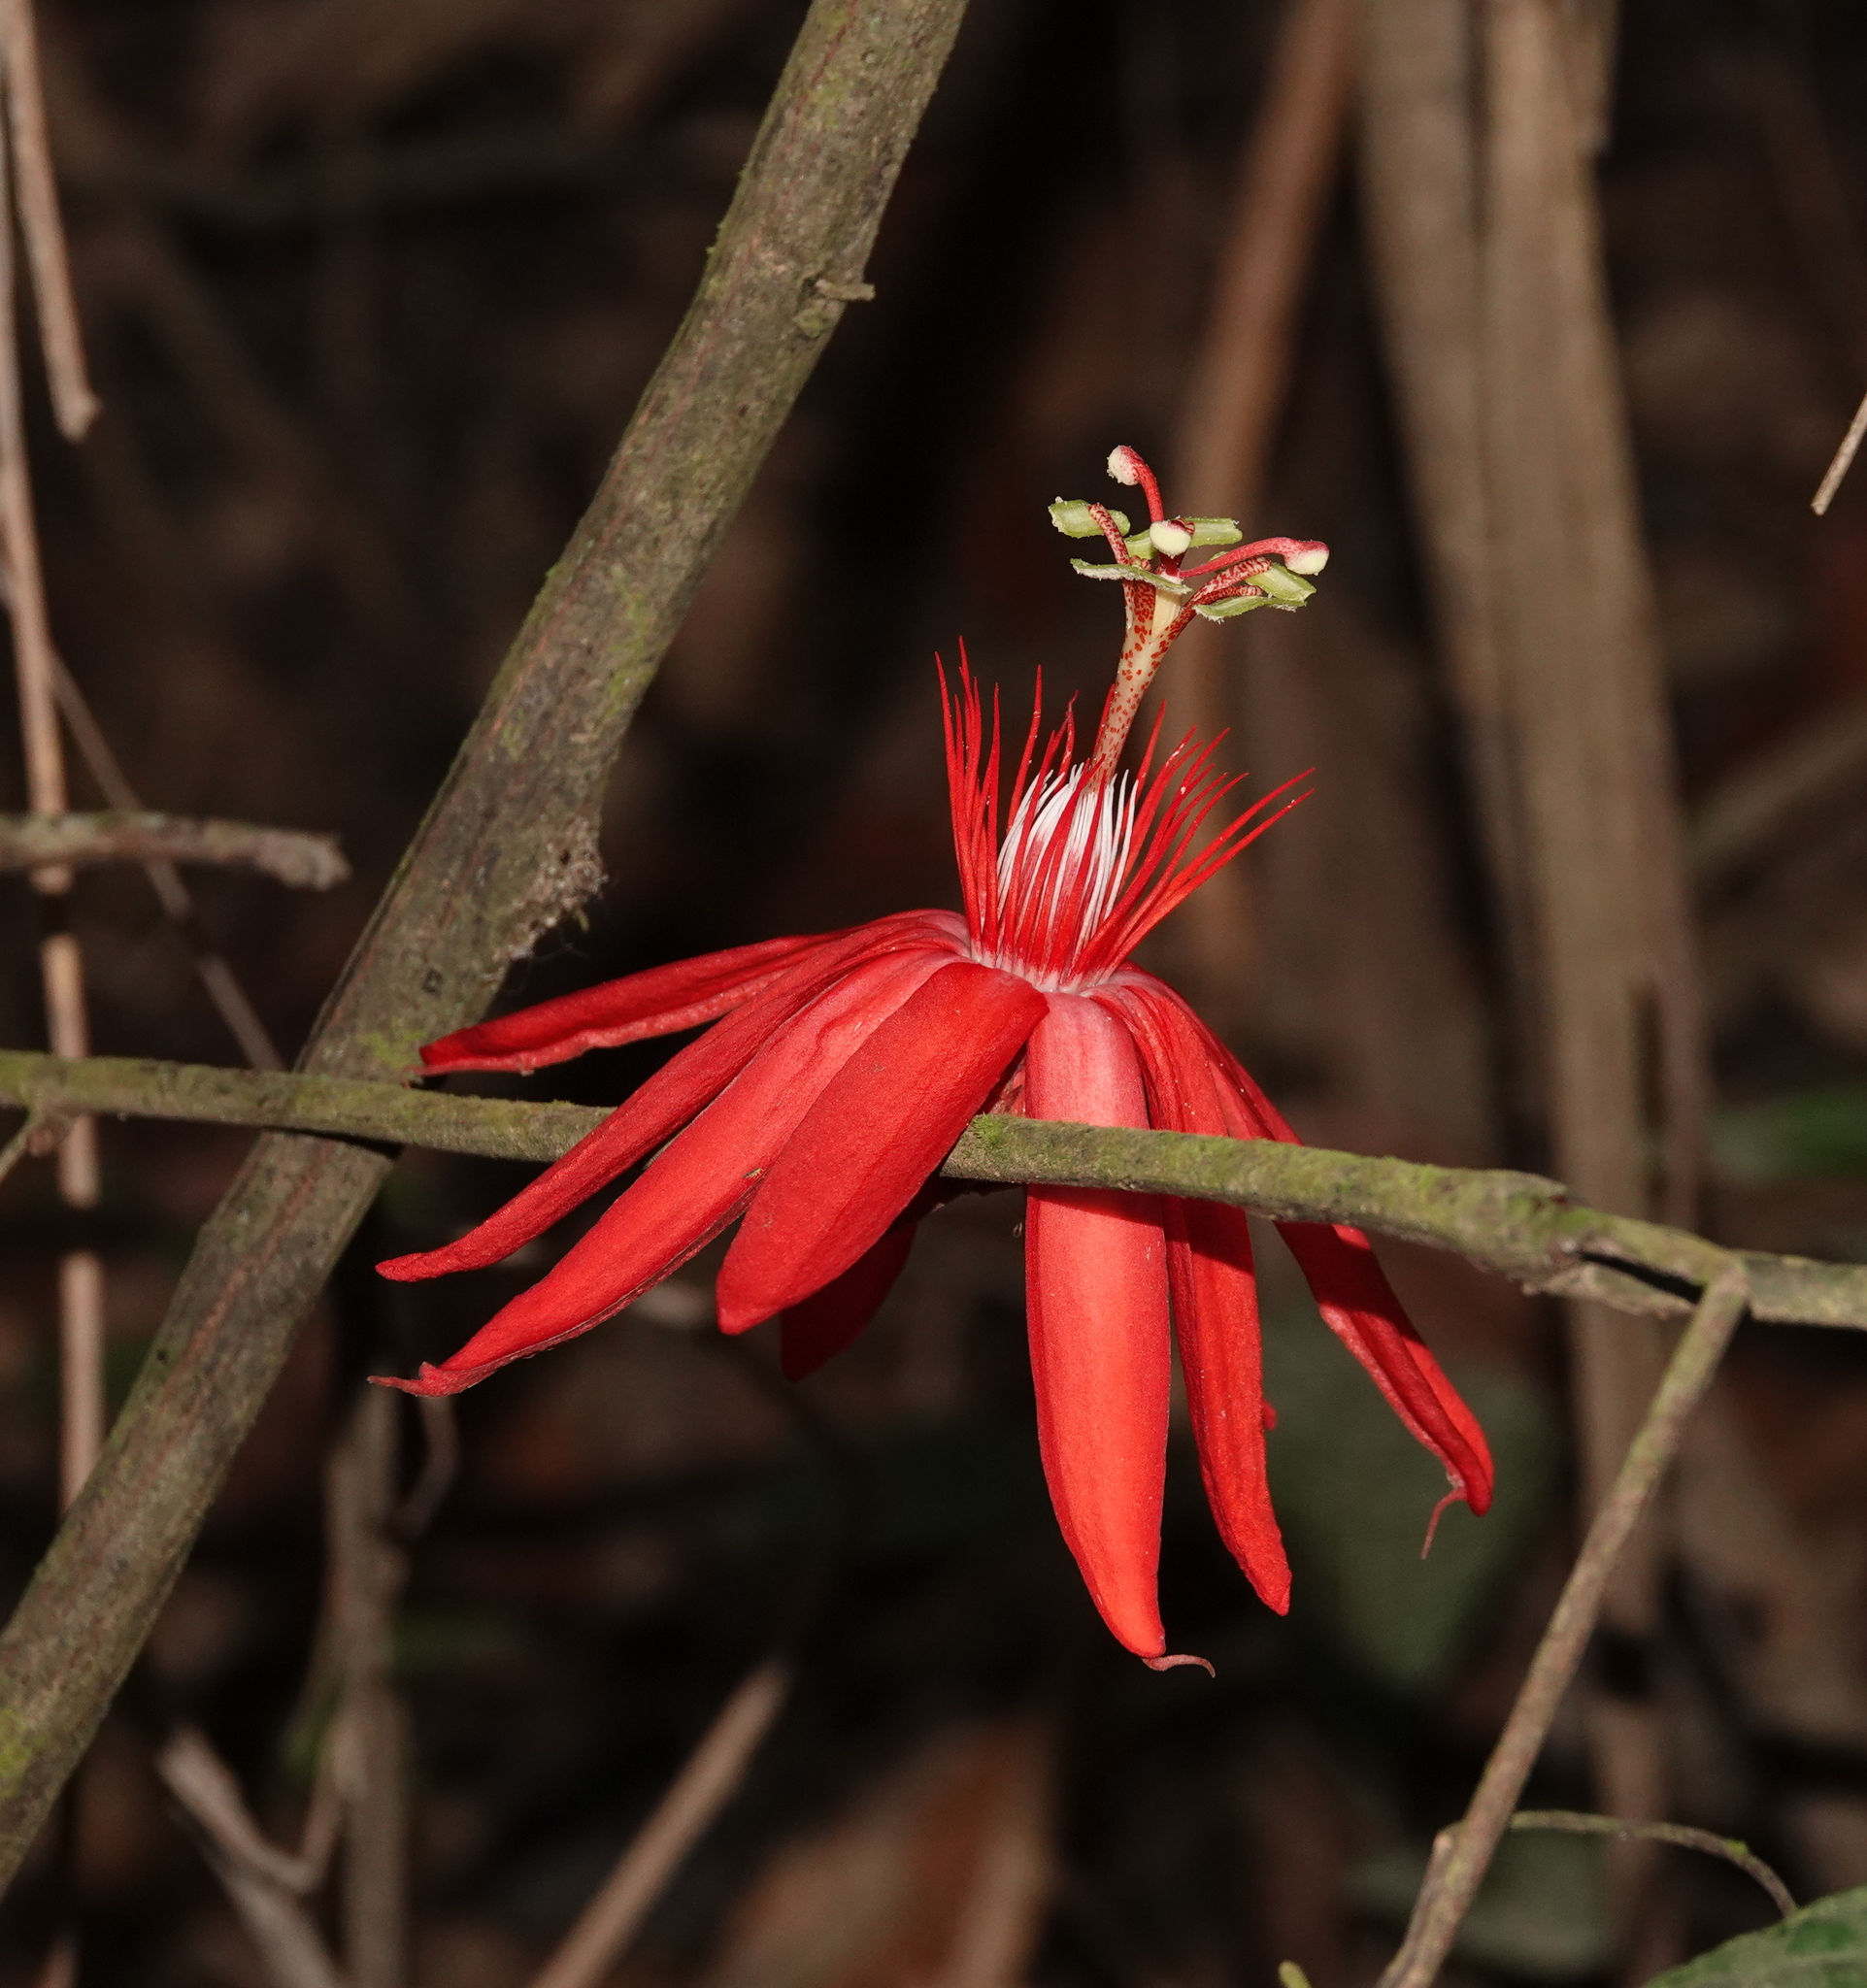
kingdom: Plantae
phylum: Tracheophyta
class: Magnoliopsida
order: Malpighiales
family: Passifloraceae
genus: Passiflora
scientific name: Passiflora vitifolia
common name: Perfumed passionflower
